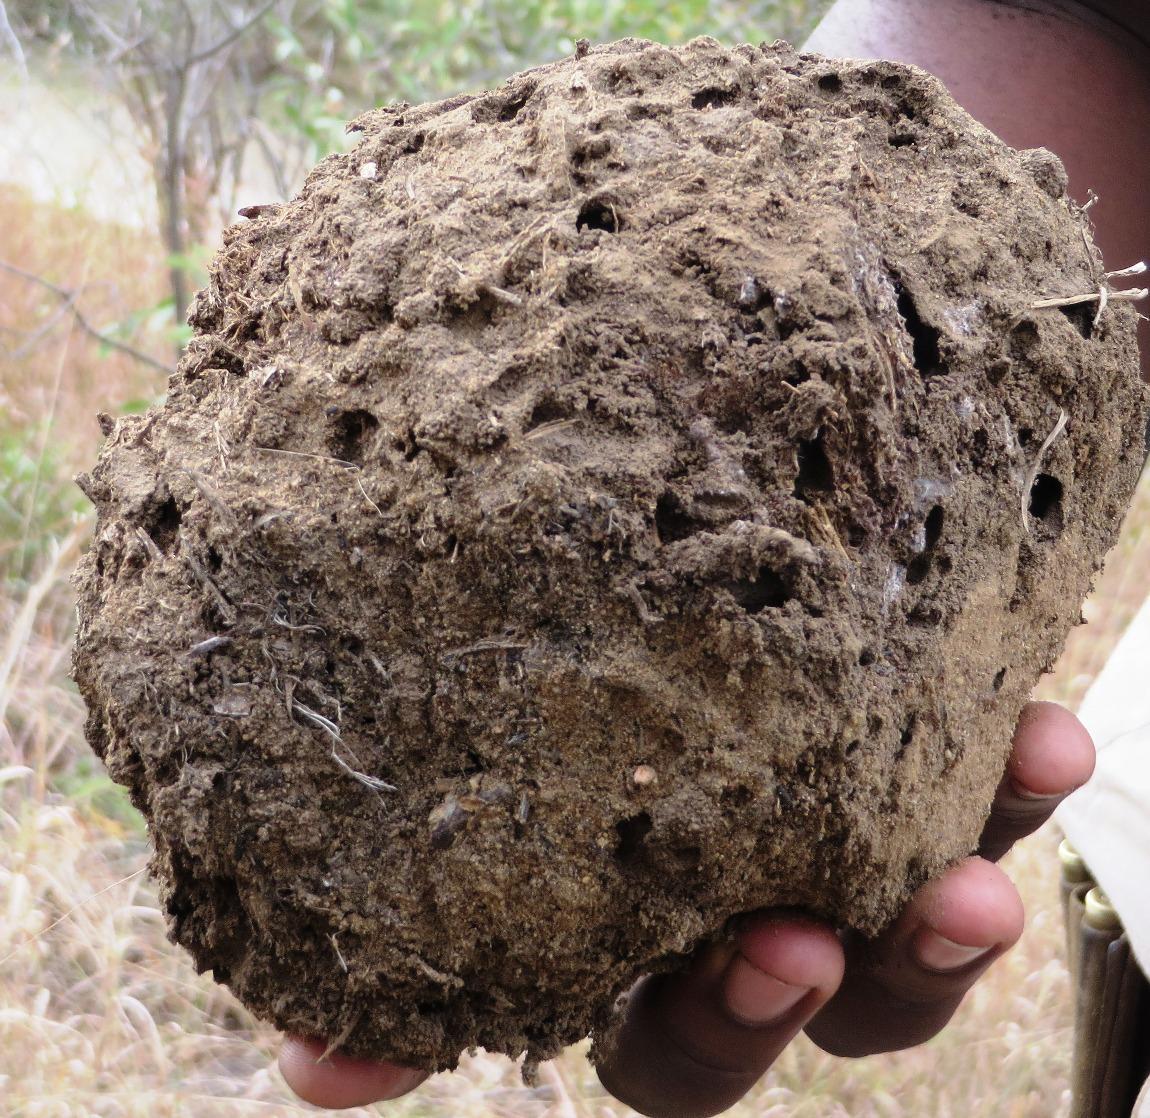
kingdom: Animalia
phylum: Chordata
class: Mammalia
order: Perissodactyla
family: Rhinocerotidae
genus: Ceratotherium
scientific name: Ceratotherium simum
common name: White rhinoceros
